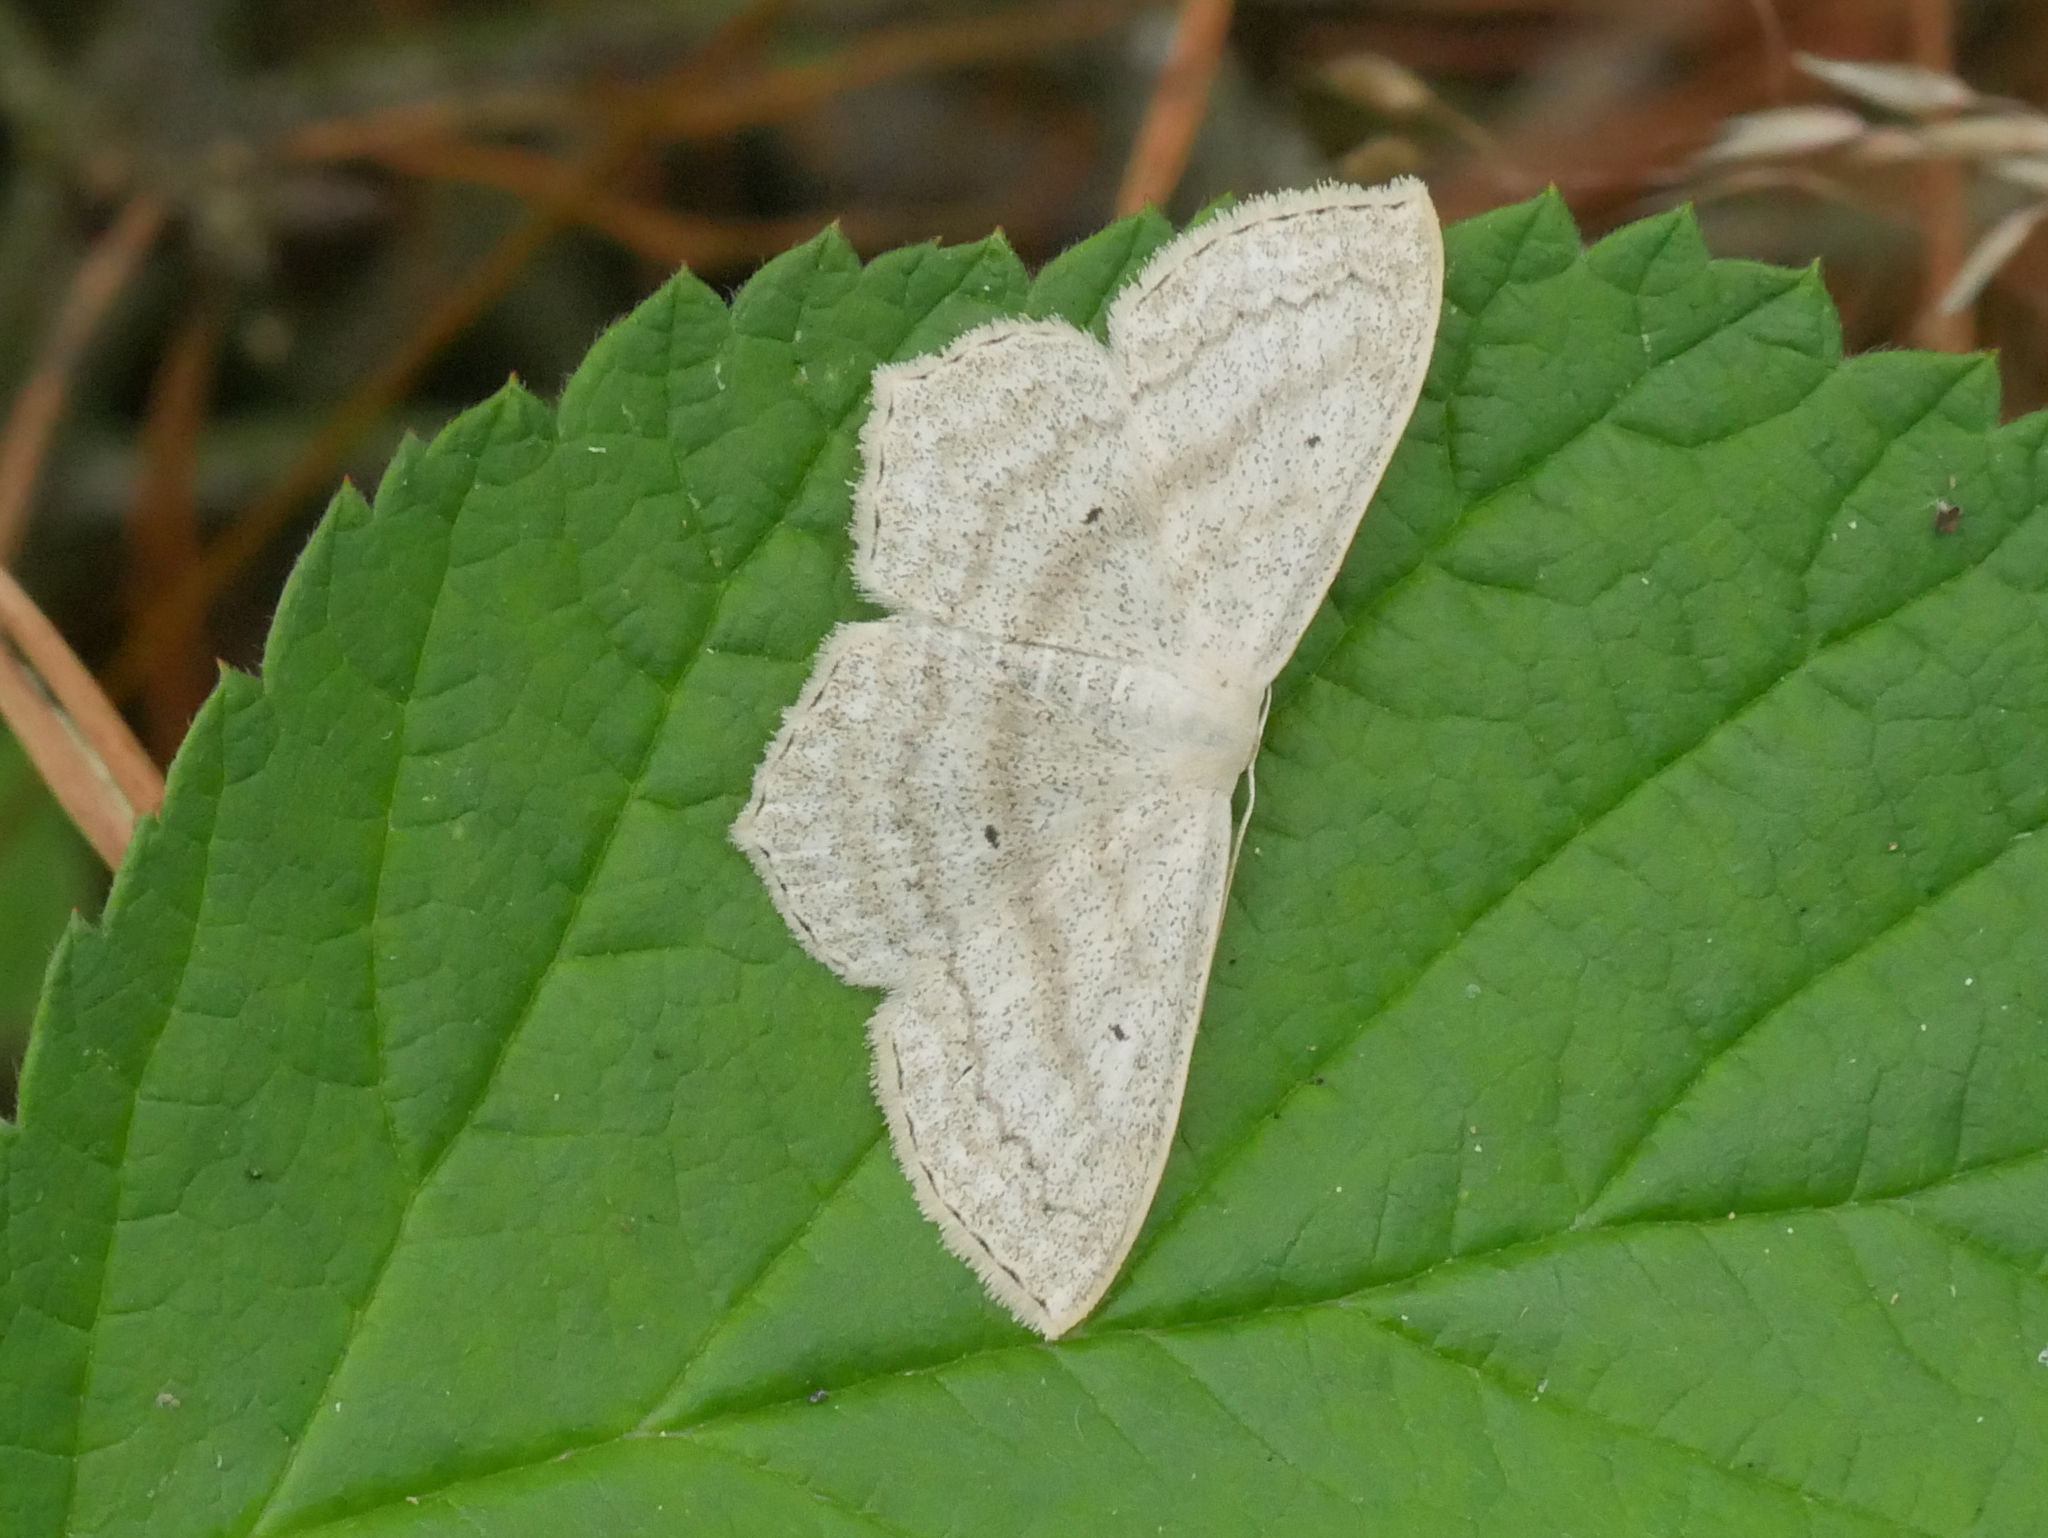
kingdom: Animalia
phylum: Arthropoda
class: Insecta
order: Lepidoptera
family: Geometridae
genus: Scopula
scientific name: Scopula nigropunctata
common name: Sub-angled wave
